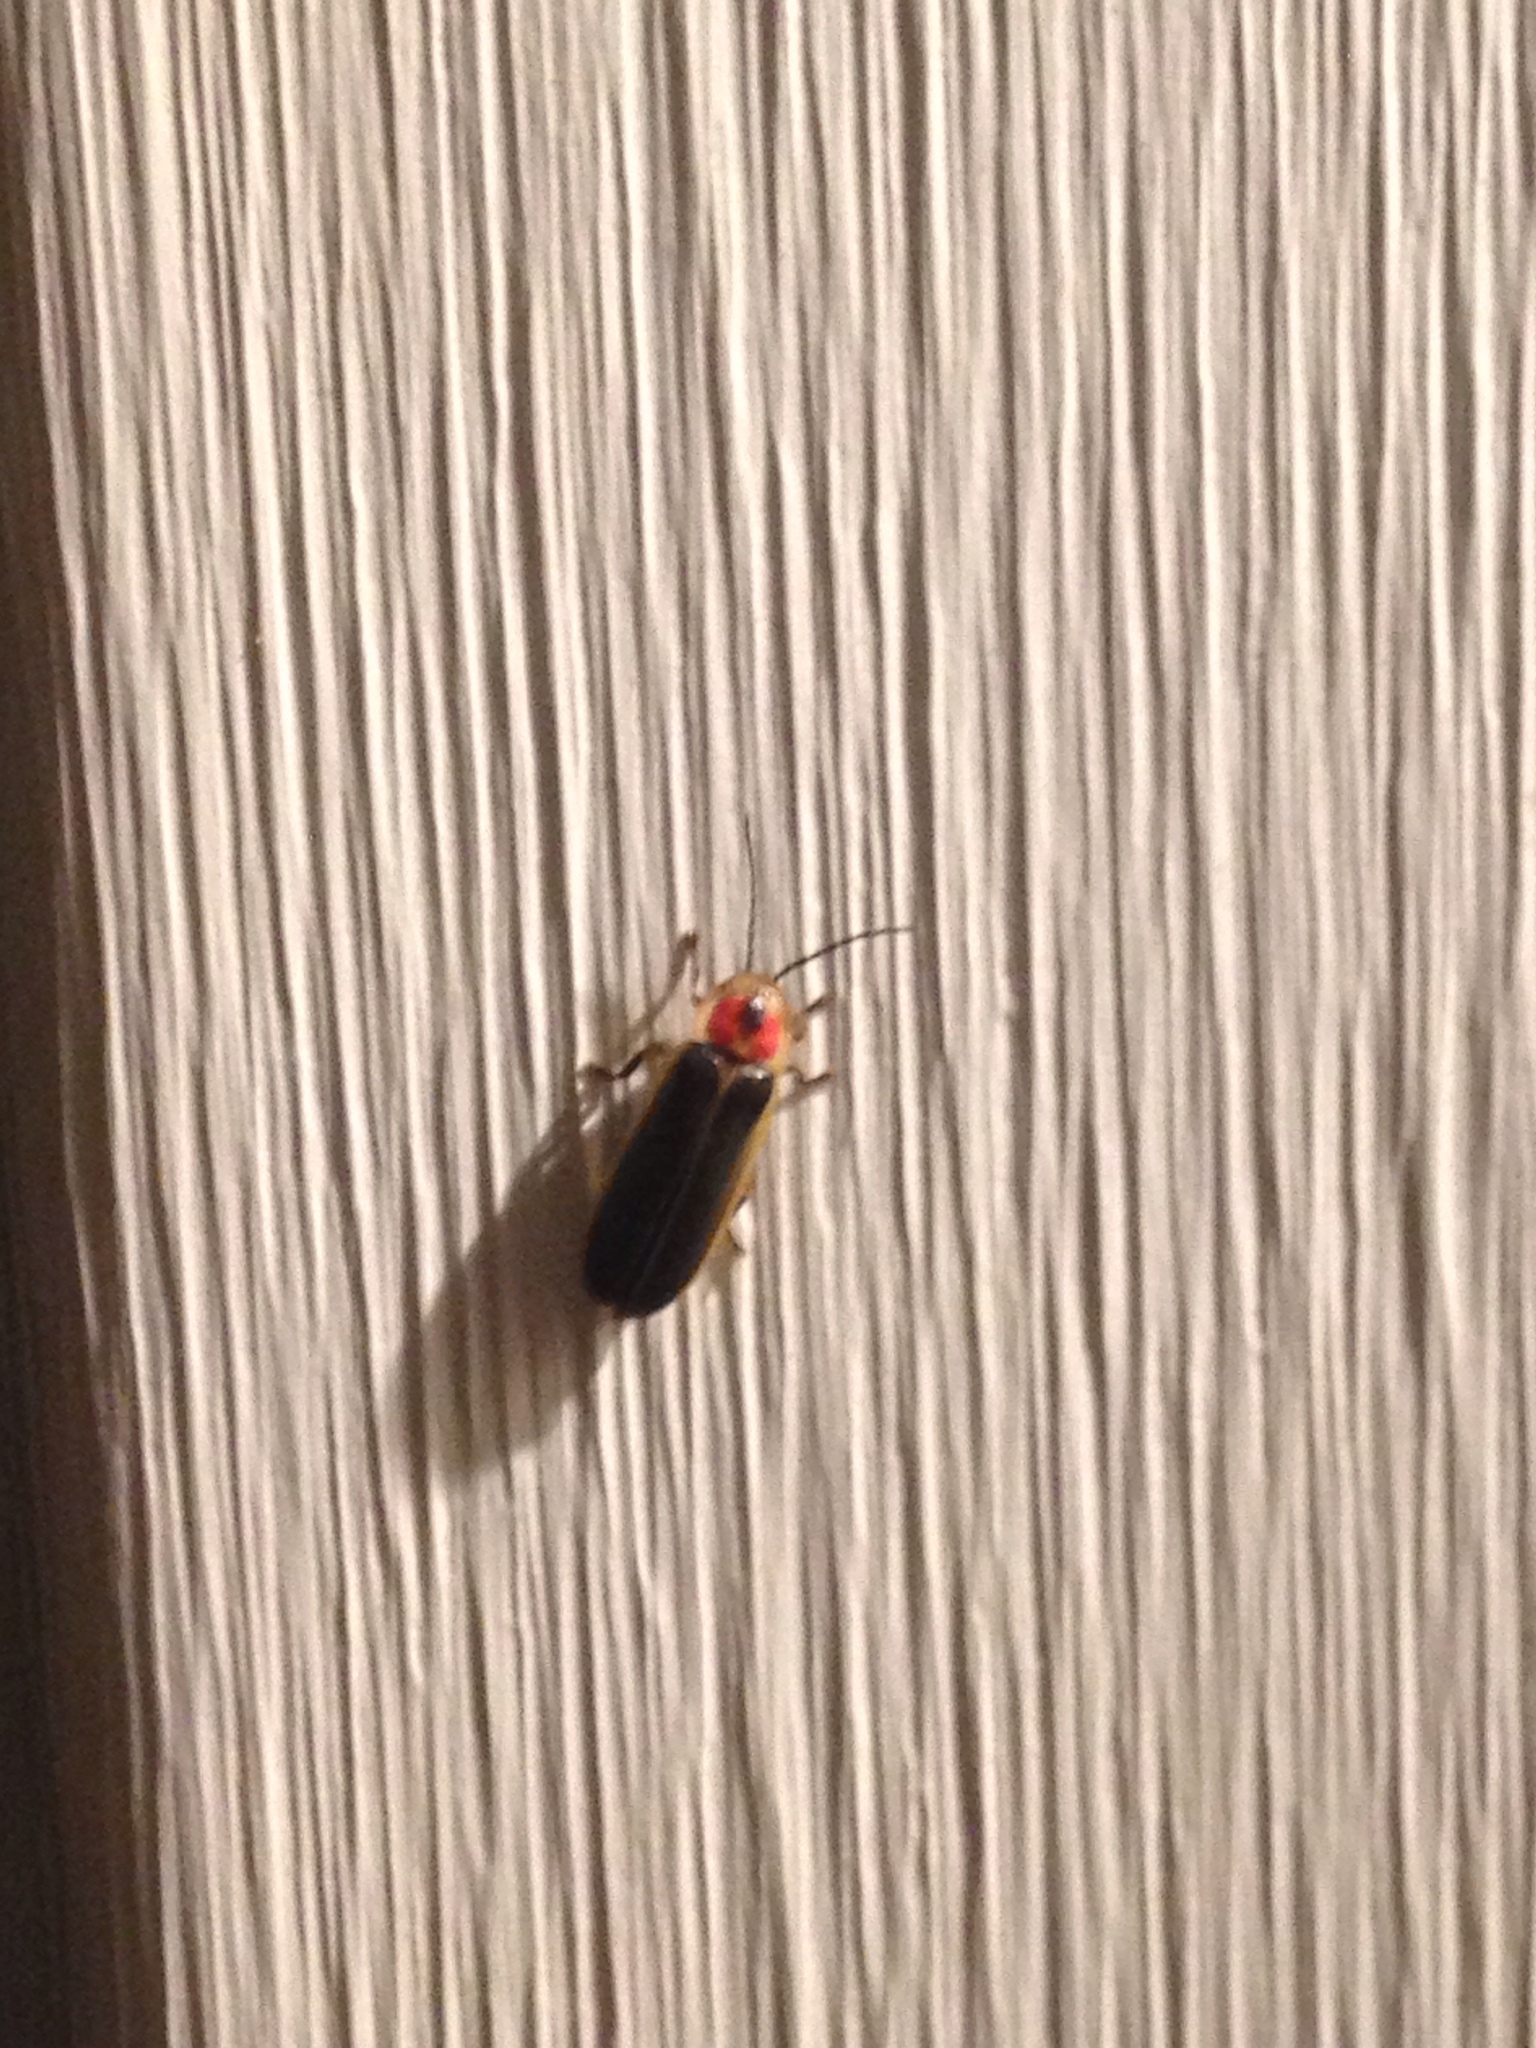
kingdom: Animalia
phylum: Arthropoda
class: Insecta
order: Coleoptera
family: Lampyridae
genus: Photinus
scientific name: Photinus pyralis
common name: Big dipper firefly
